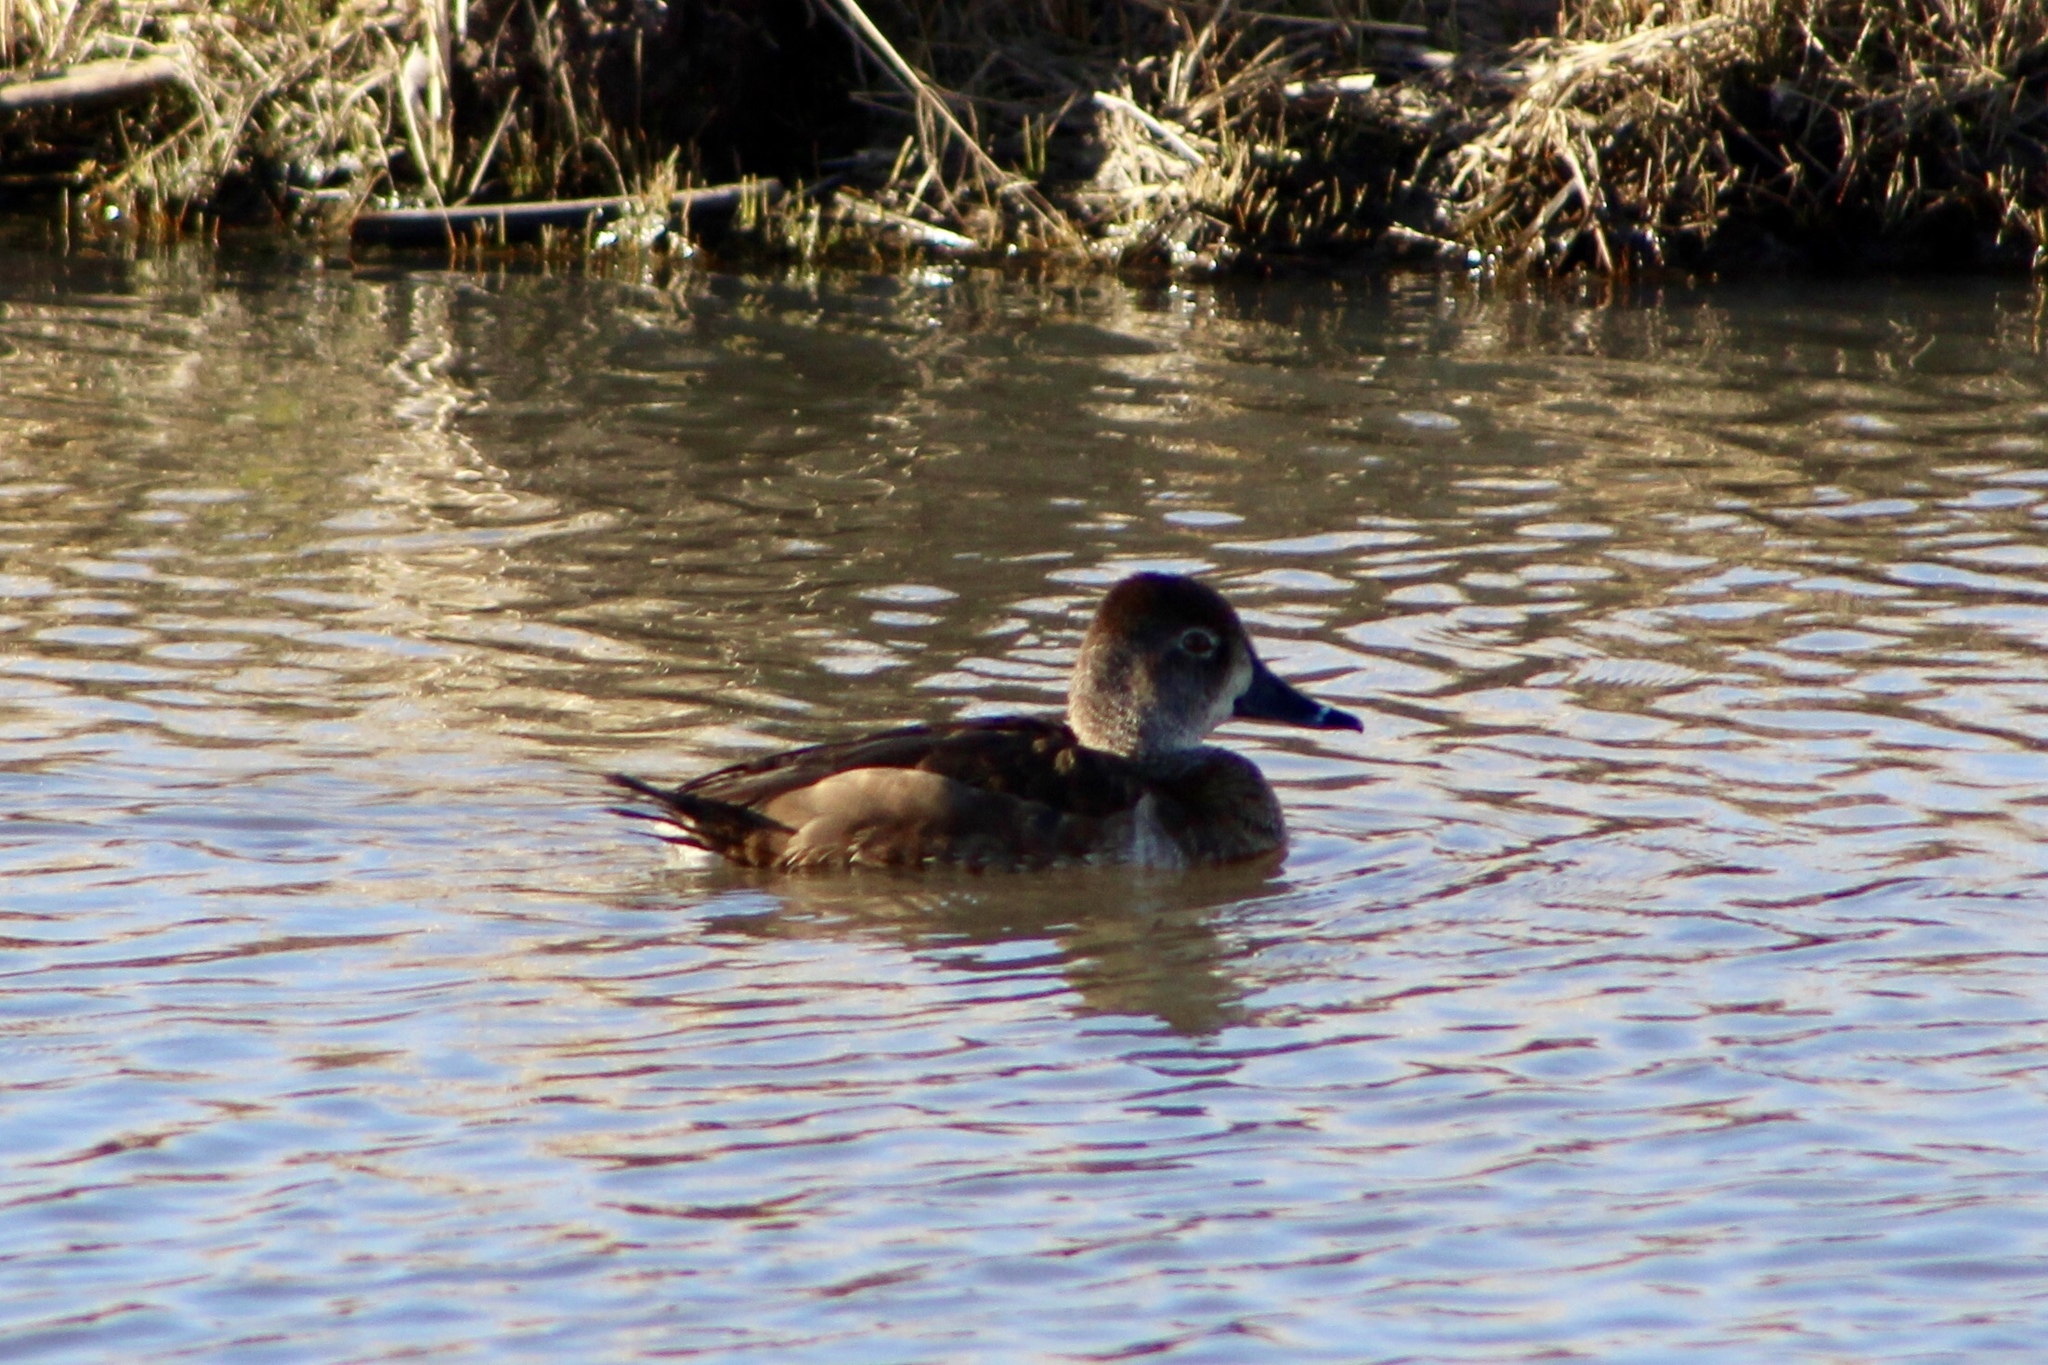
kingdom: Animalia
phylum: Chordata
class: Aves
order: Anseriformes
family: Anatidae
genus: Aythya
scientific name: Aythya collaris
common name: Ring-necked duck
